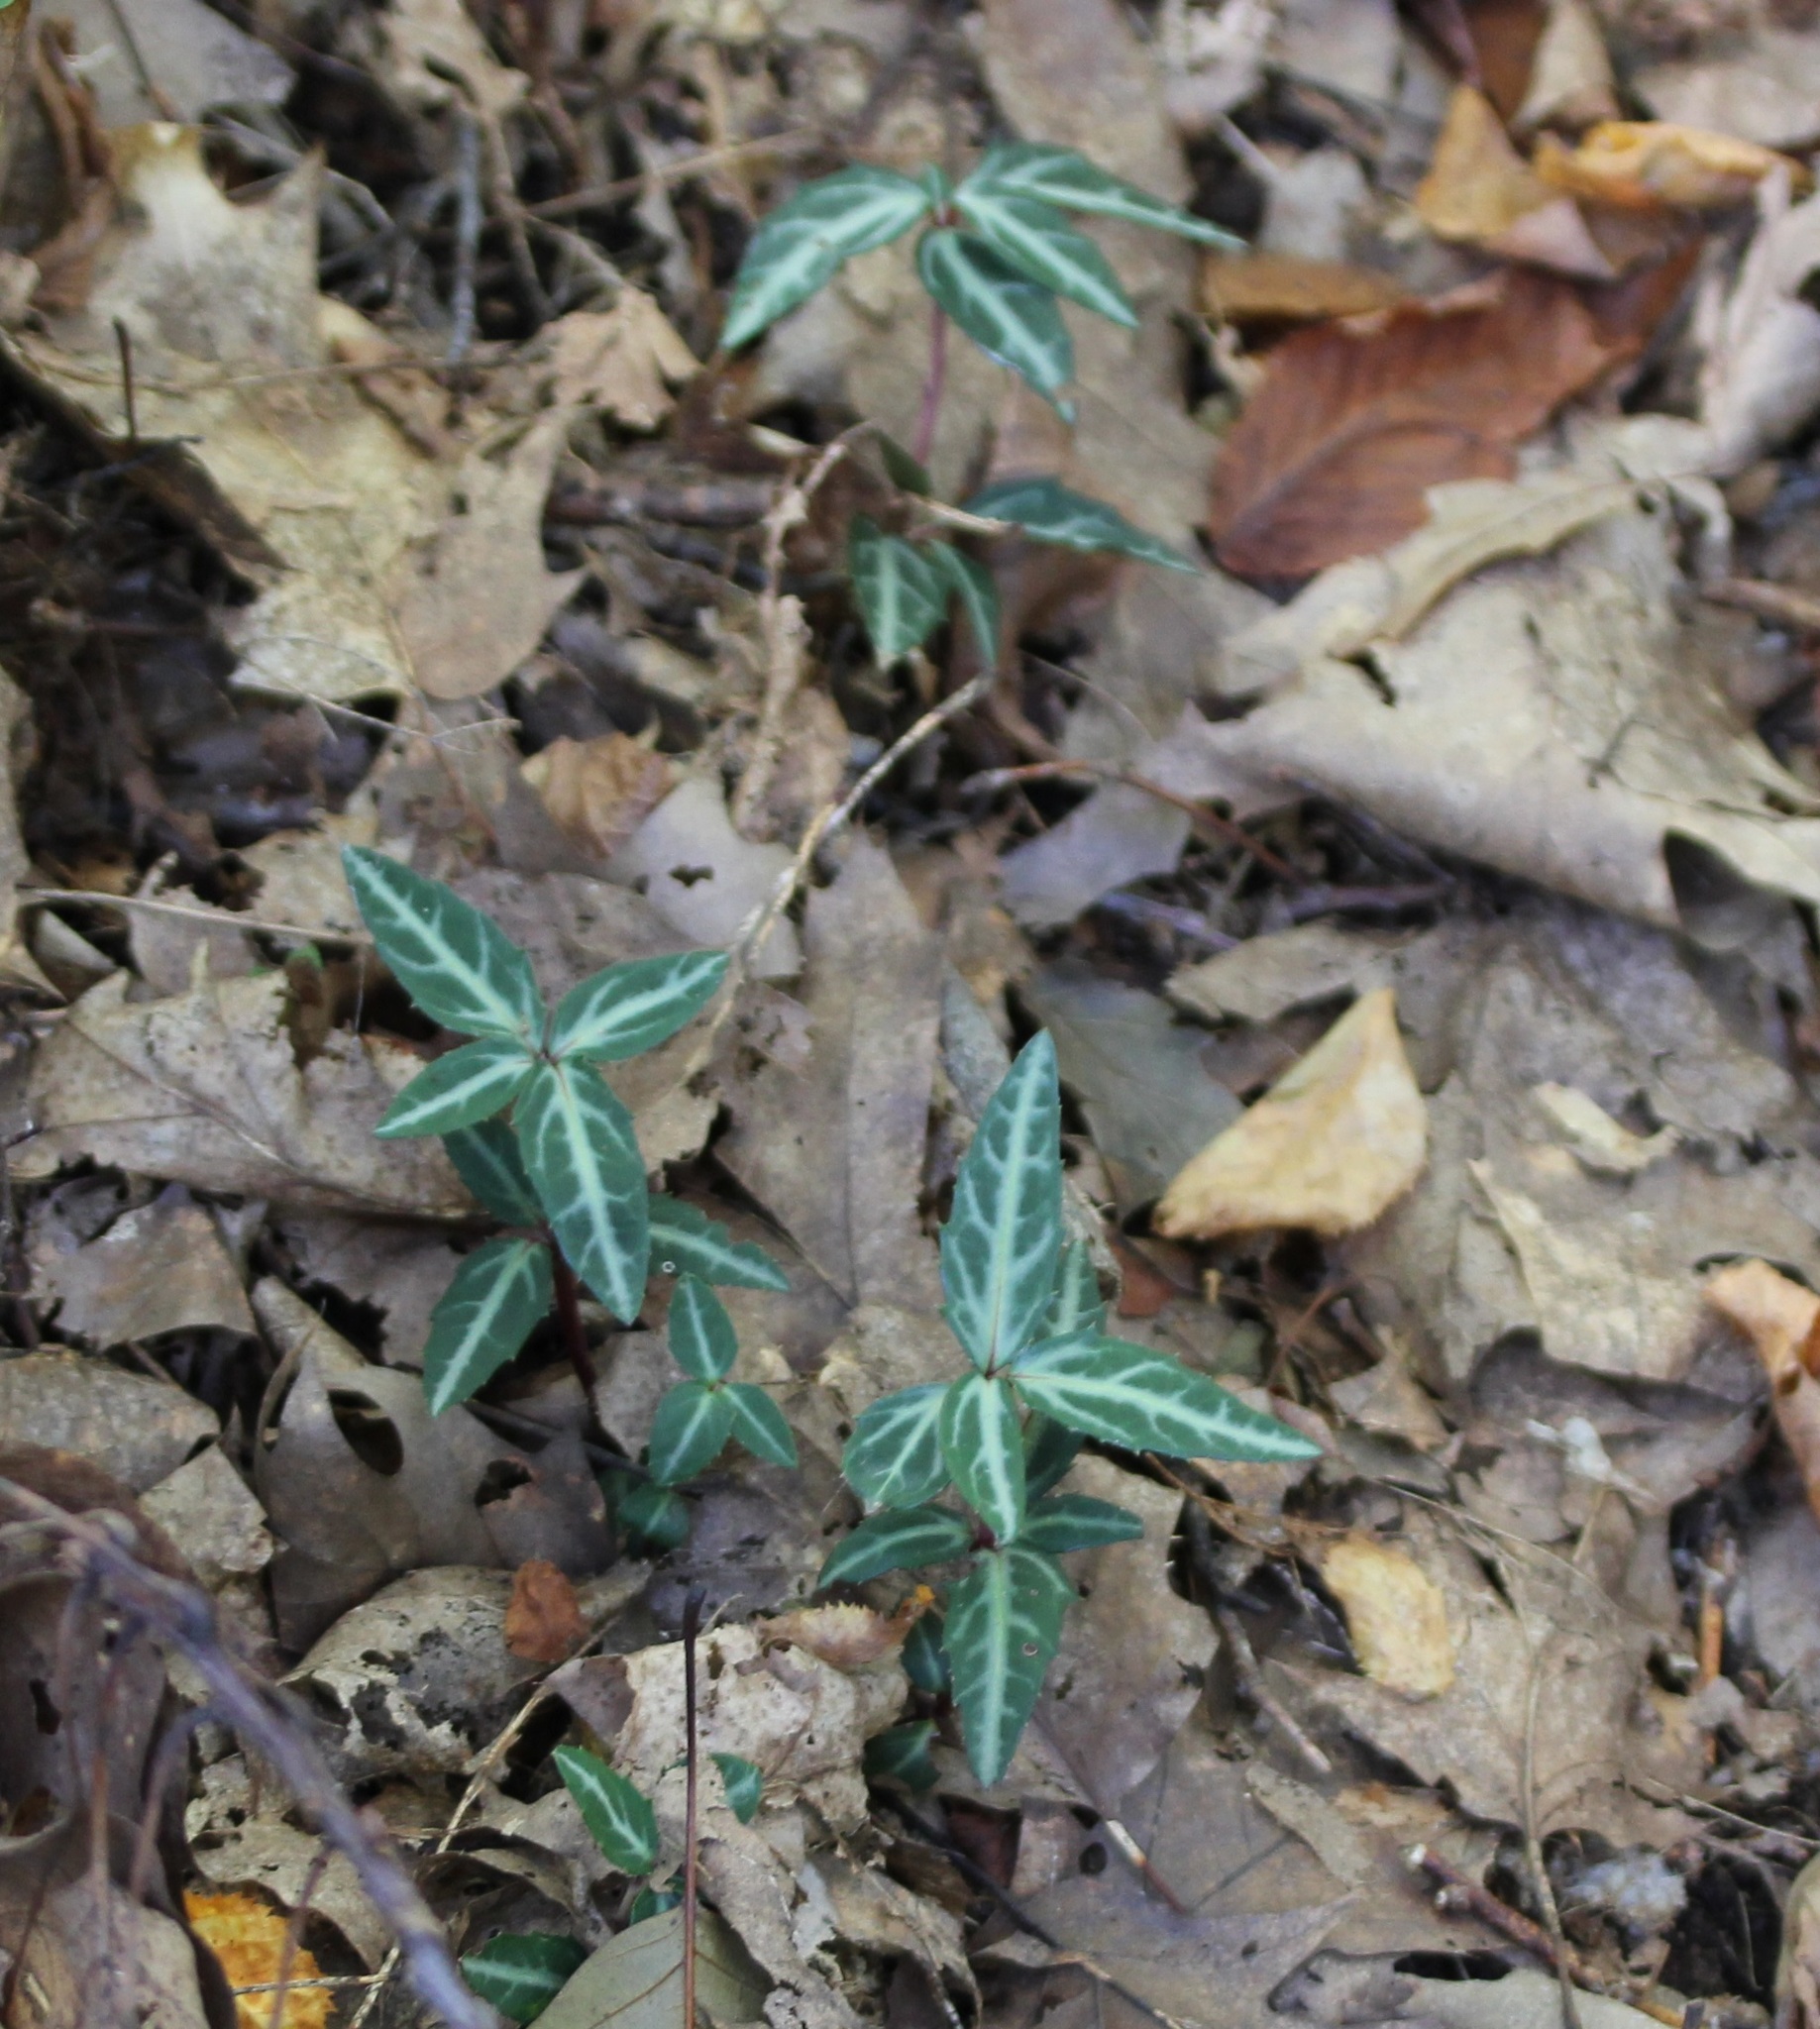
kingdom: Plantae
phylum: Tracheophyta
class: Magnoliopsida
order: Ericales
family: Ericaceae
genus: Chimaphila
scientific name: Chimaphila maculata
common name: Spotted pipsissewa
